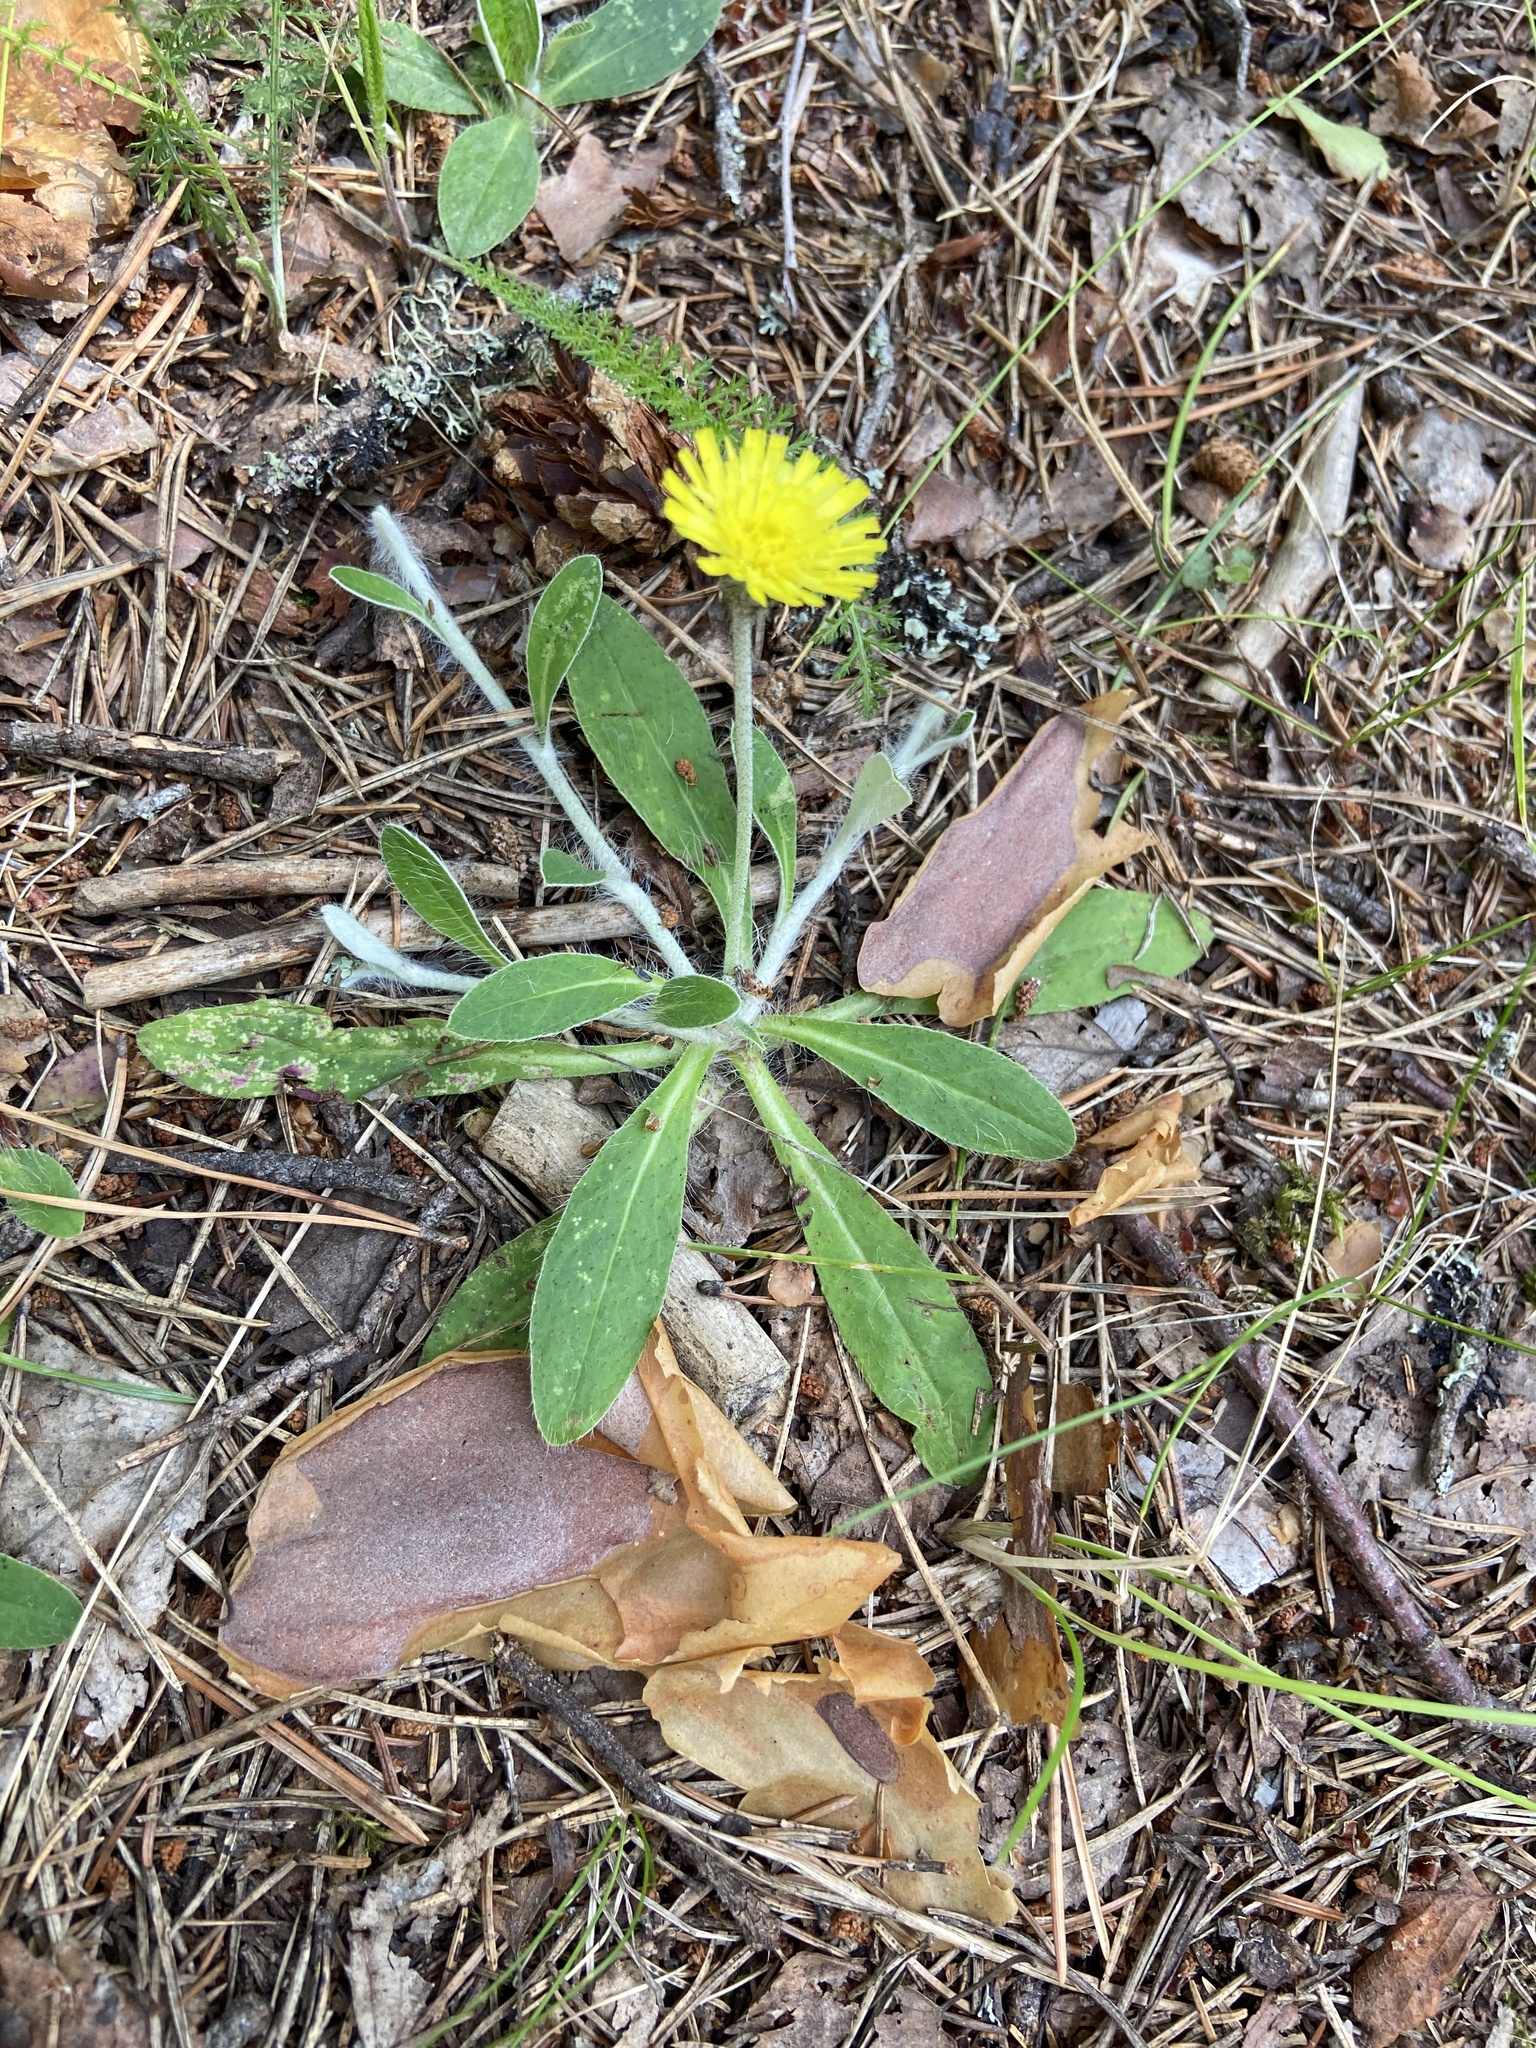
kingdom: Plantae
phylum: Tracheophyta
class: Magnoliopsida
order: Asterales
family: Asteraceae
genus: Pilosella
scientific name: Pilosella officinarum
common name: Mouse-ear hawkweed
